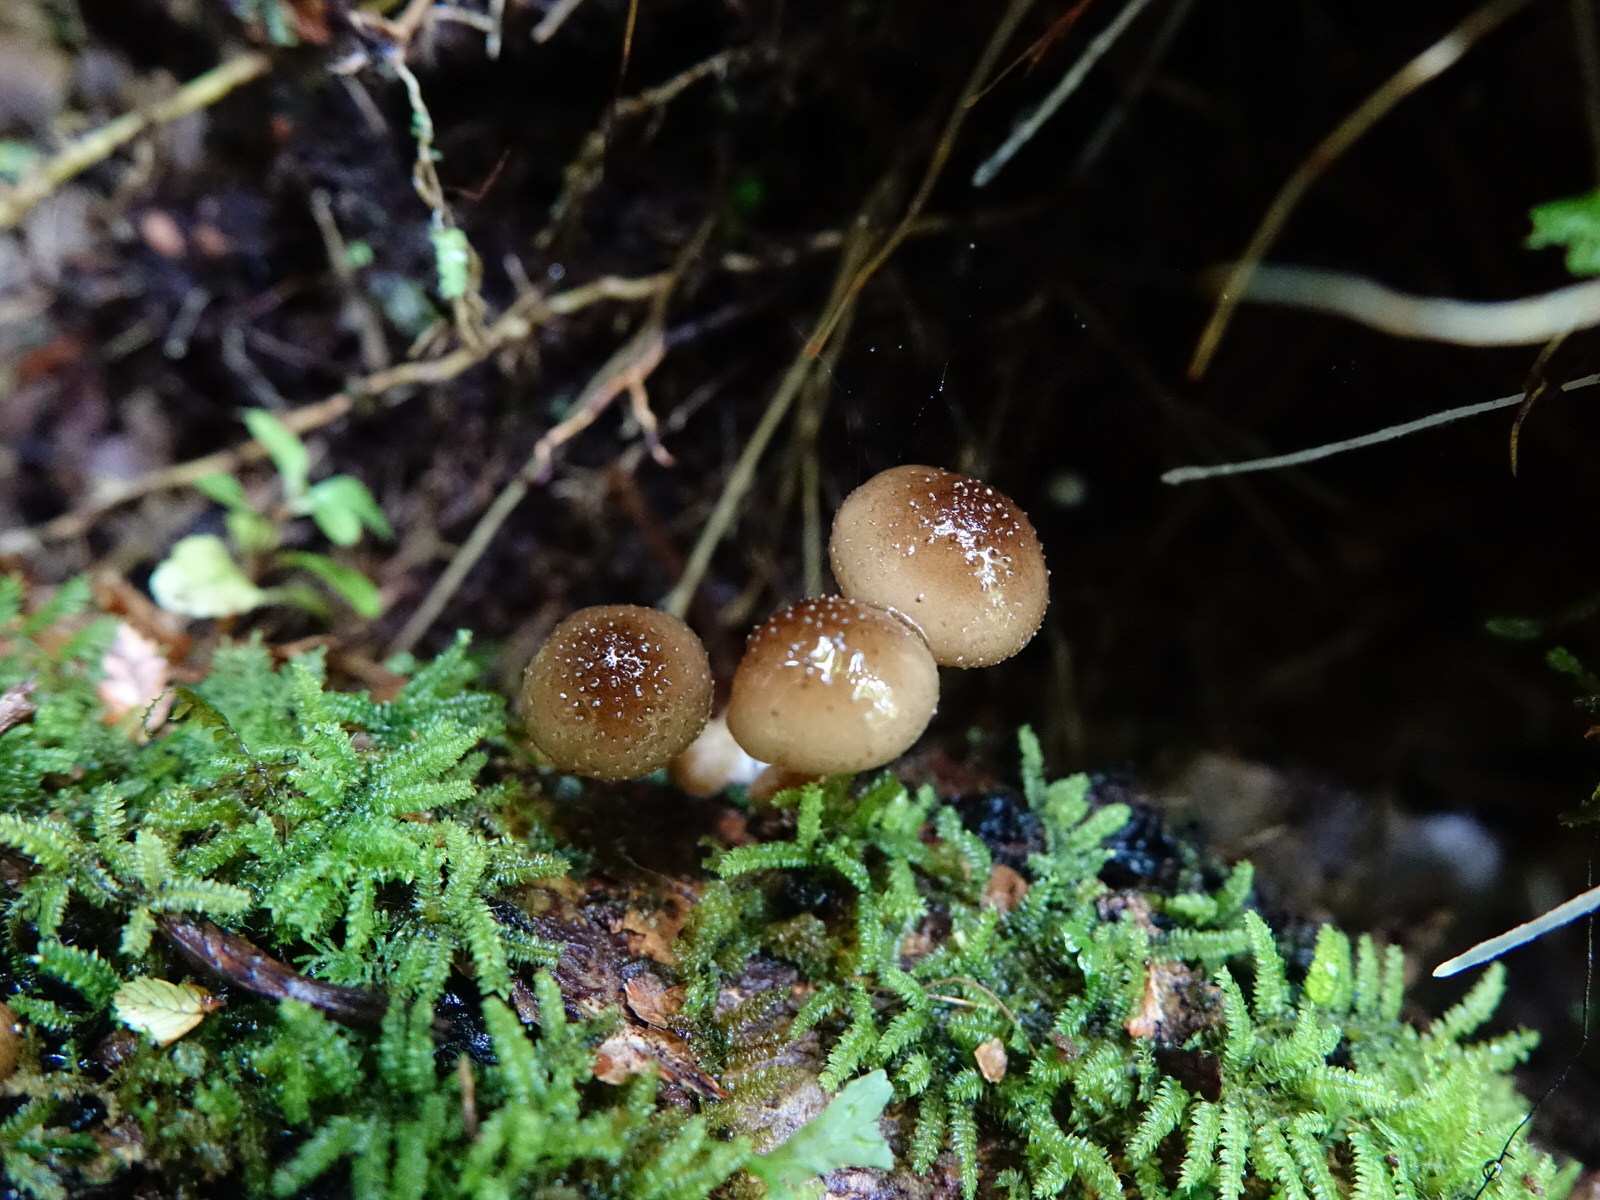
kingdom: Fungi
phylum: Basidiomycota
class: Agaricomycetes
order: Agaricales
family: Physalacriaceae
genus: Armillaria
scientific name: Armillaria novae-zelandiae
